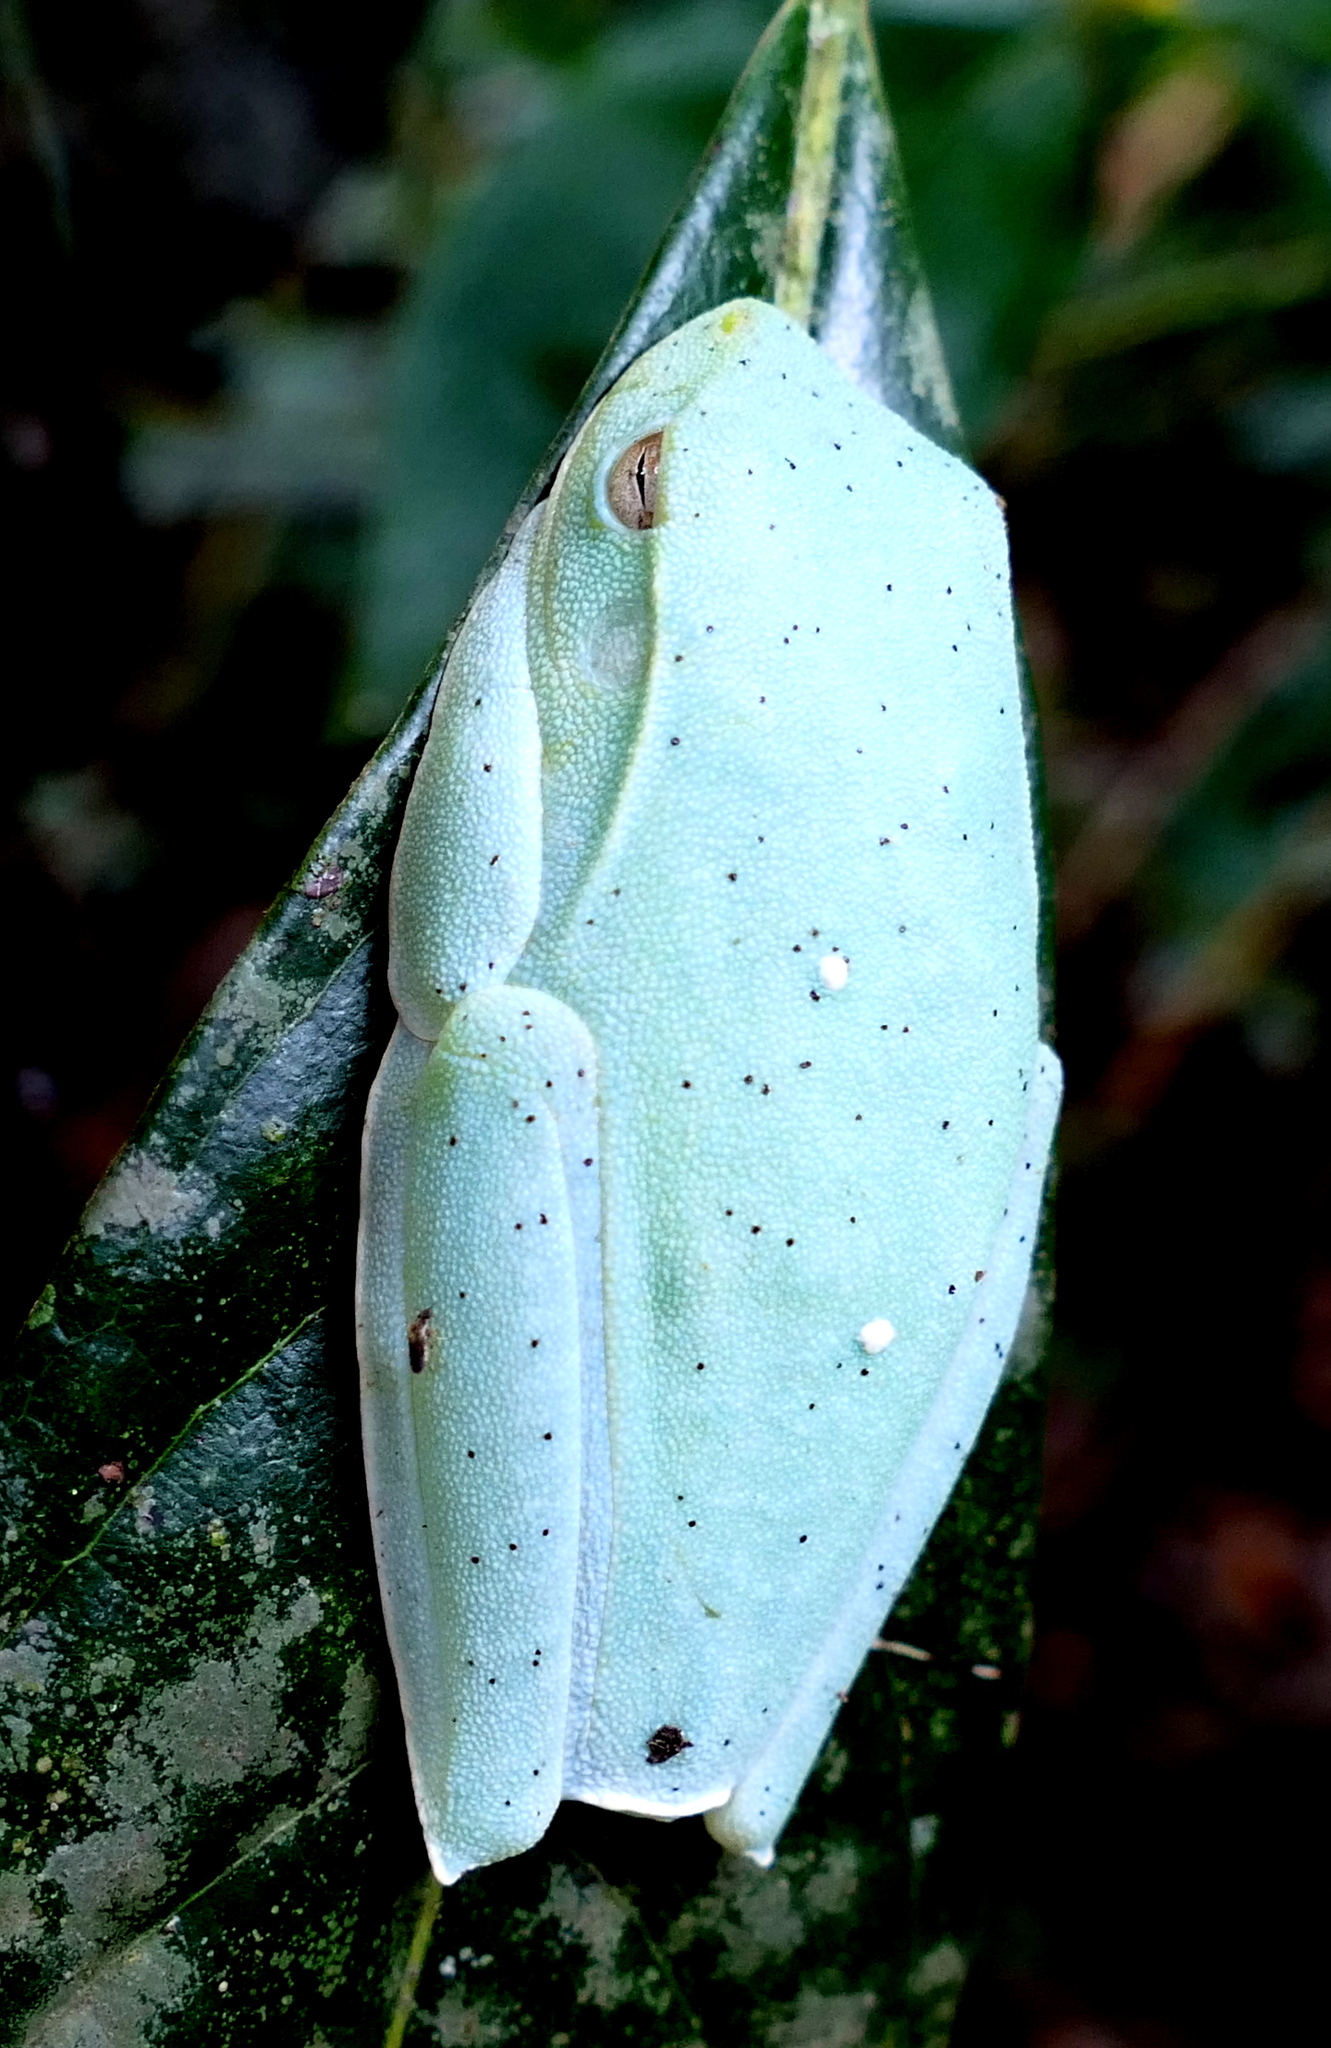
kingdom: Animalia
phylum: Chordata
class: Amphibia
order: Anura
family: Hylidae
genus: Boana
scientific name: Boana albomarginata
